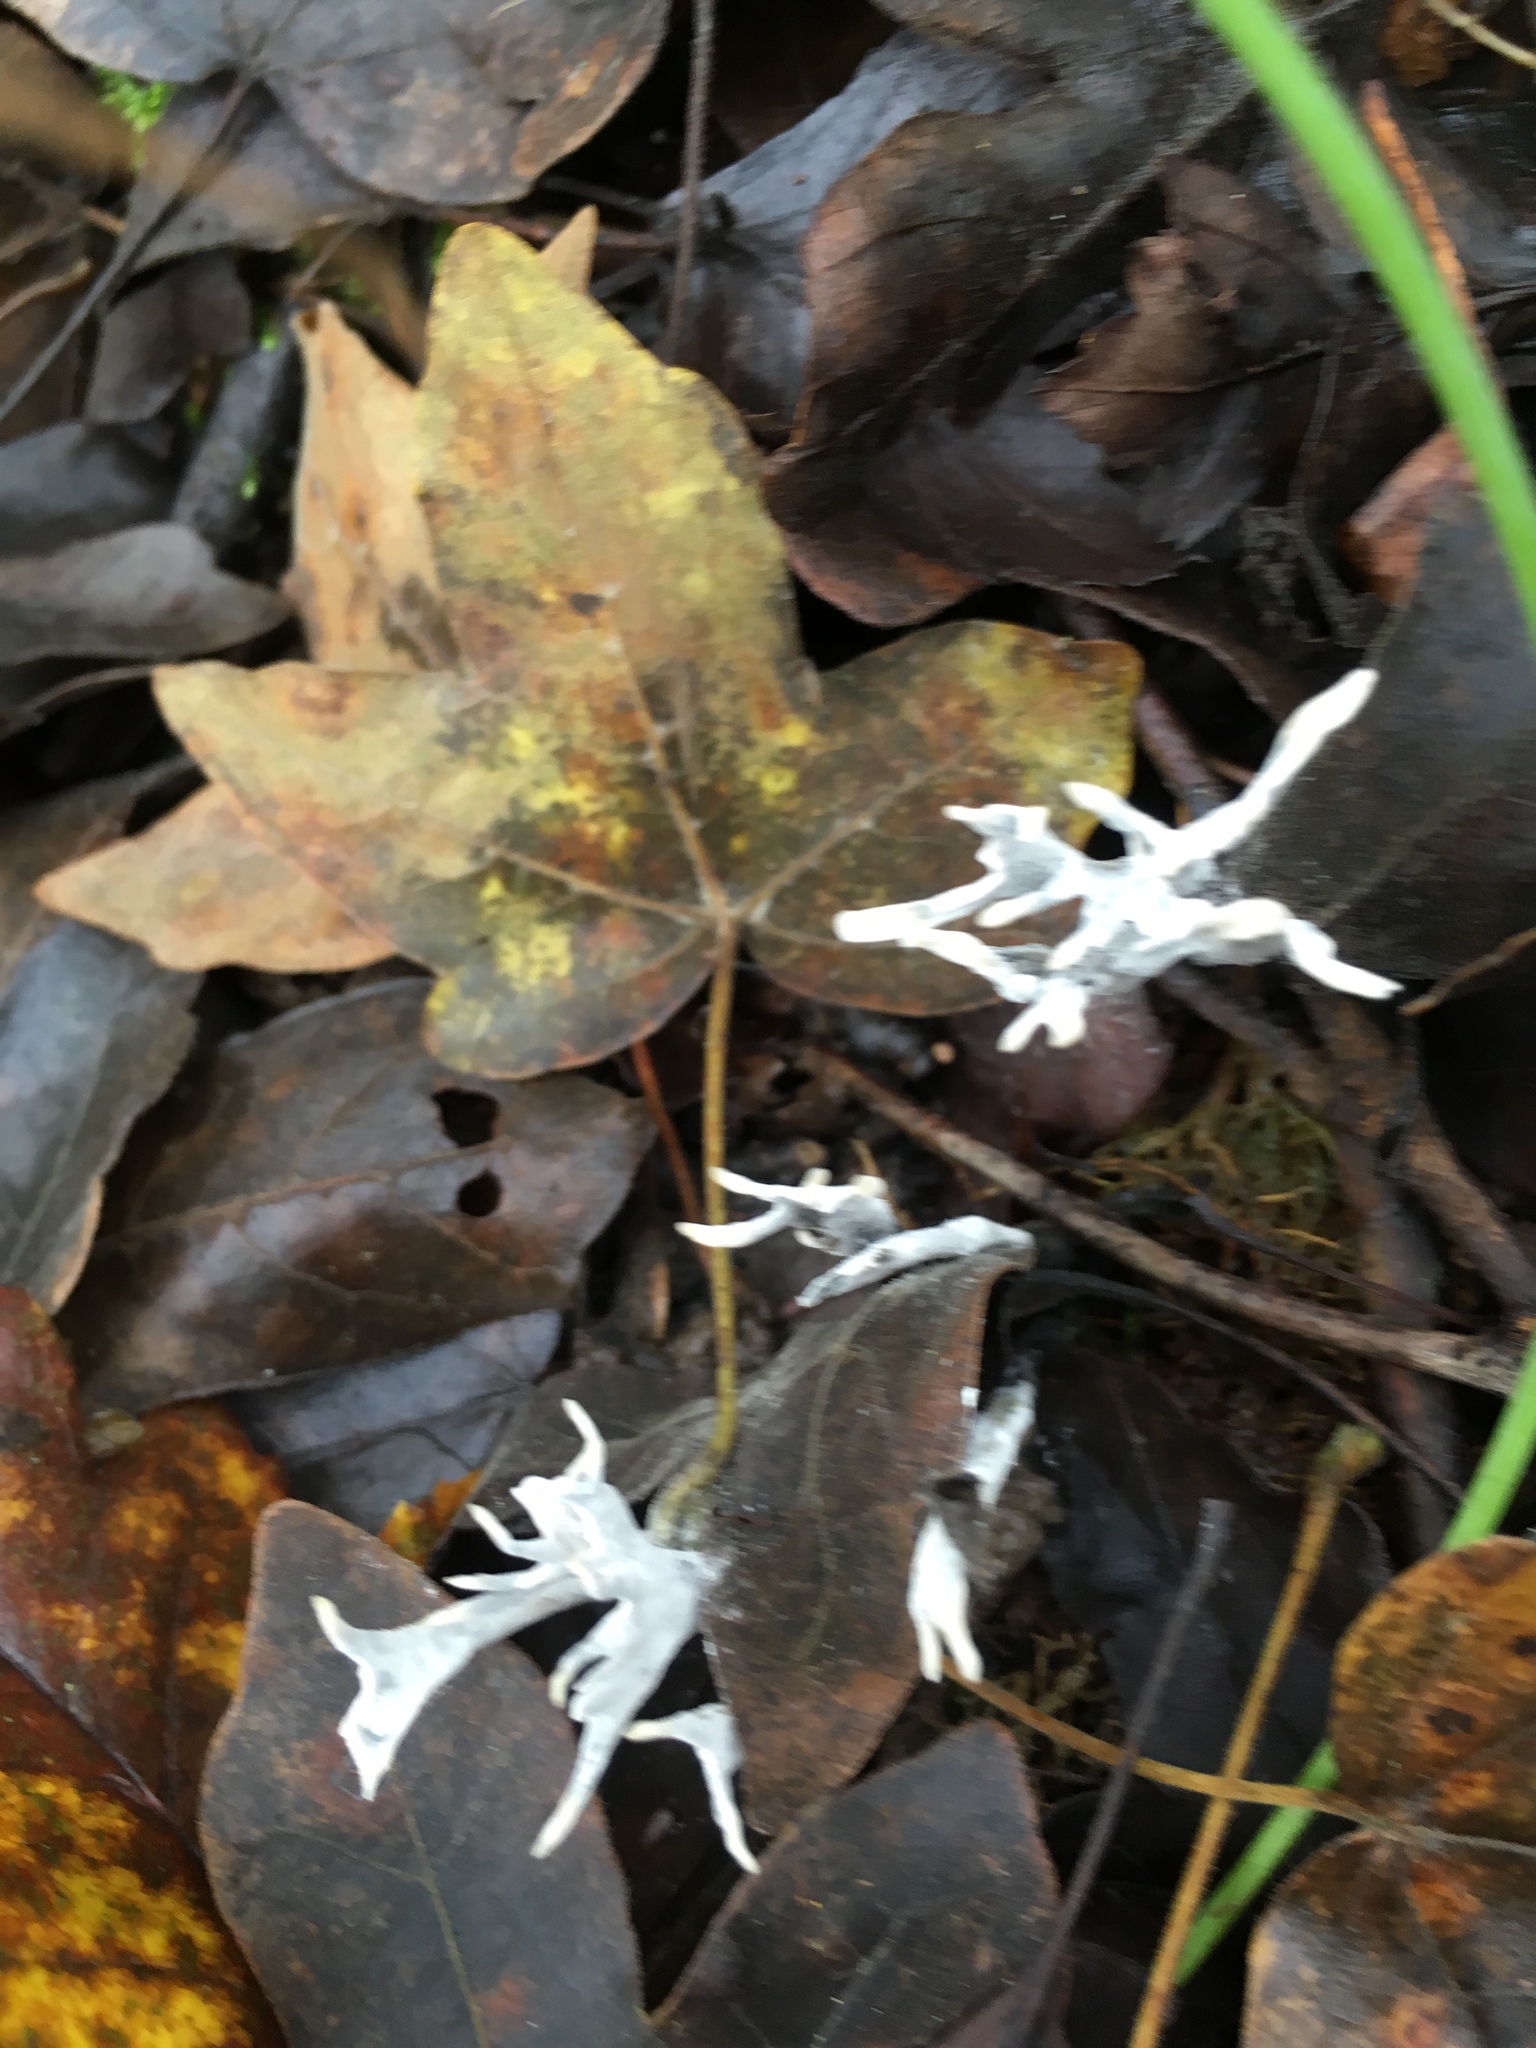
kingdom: Fungi
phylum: Ascomycota
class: Sordariomycetes
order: Xylariales
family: Xylariaceae
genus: Xylaria
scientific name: Xylaria hypoxylon
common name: Candle-snuff fungus
